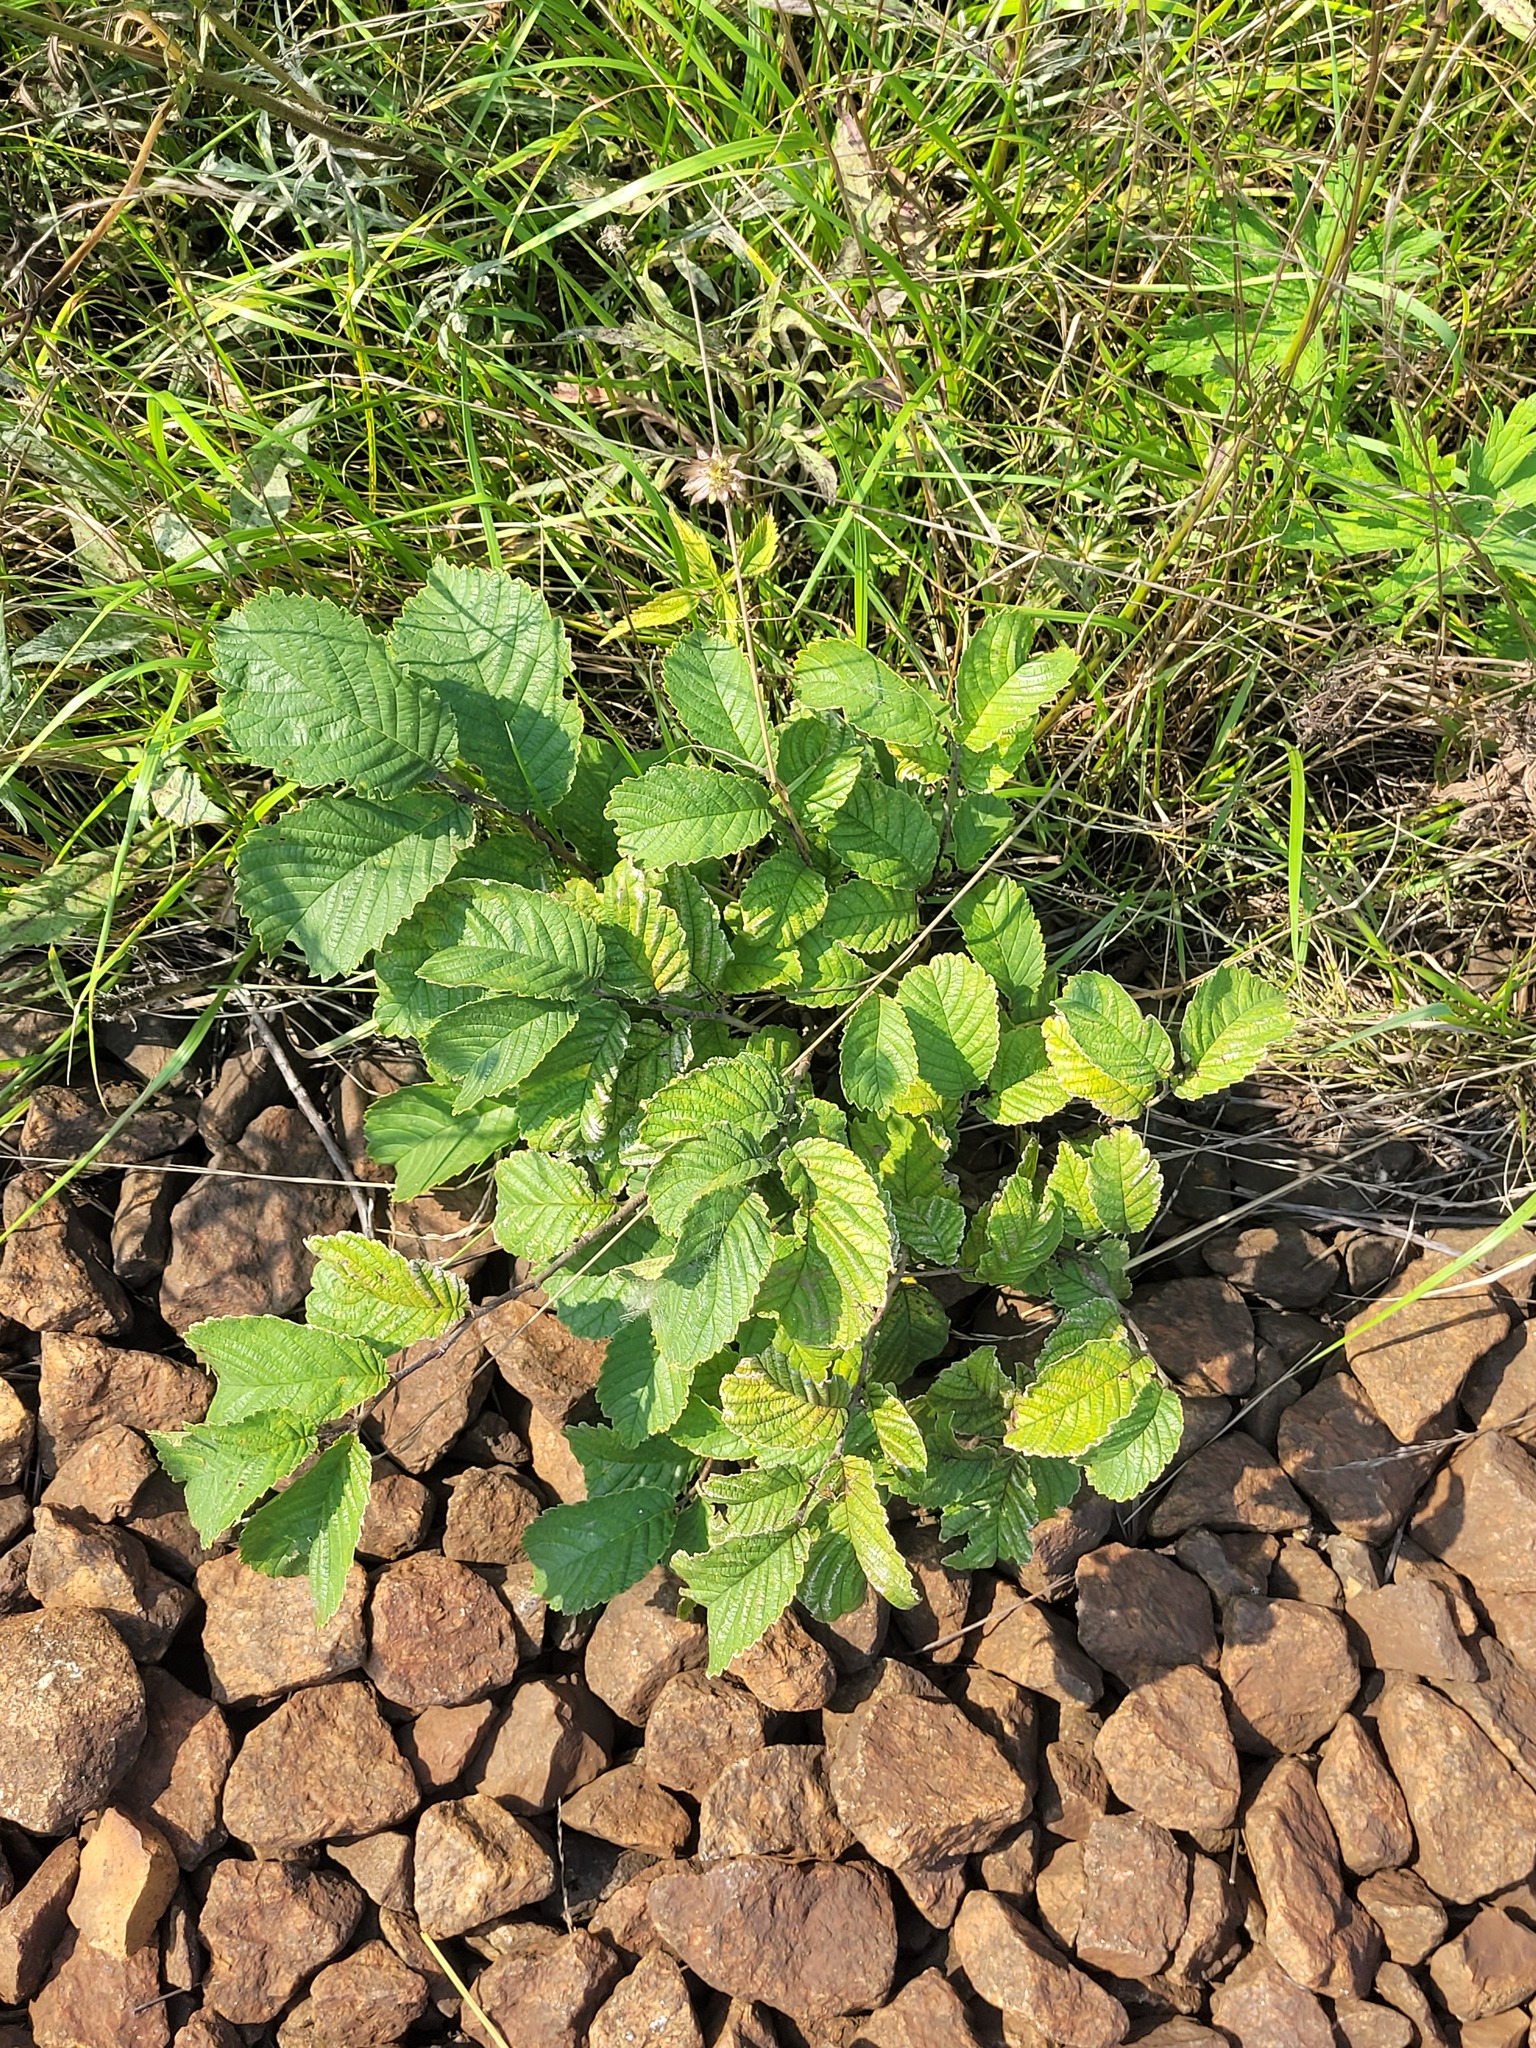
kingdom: Plantae
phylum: Tracheophyta
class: Magnoliopsida
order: Rosales
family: Ulmaceae
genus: Ulmus
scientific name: Ulmus glabra
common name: Wych elm
